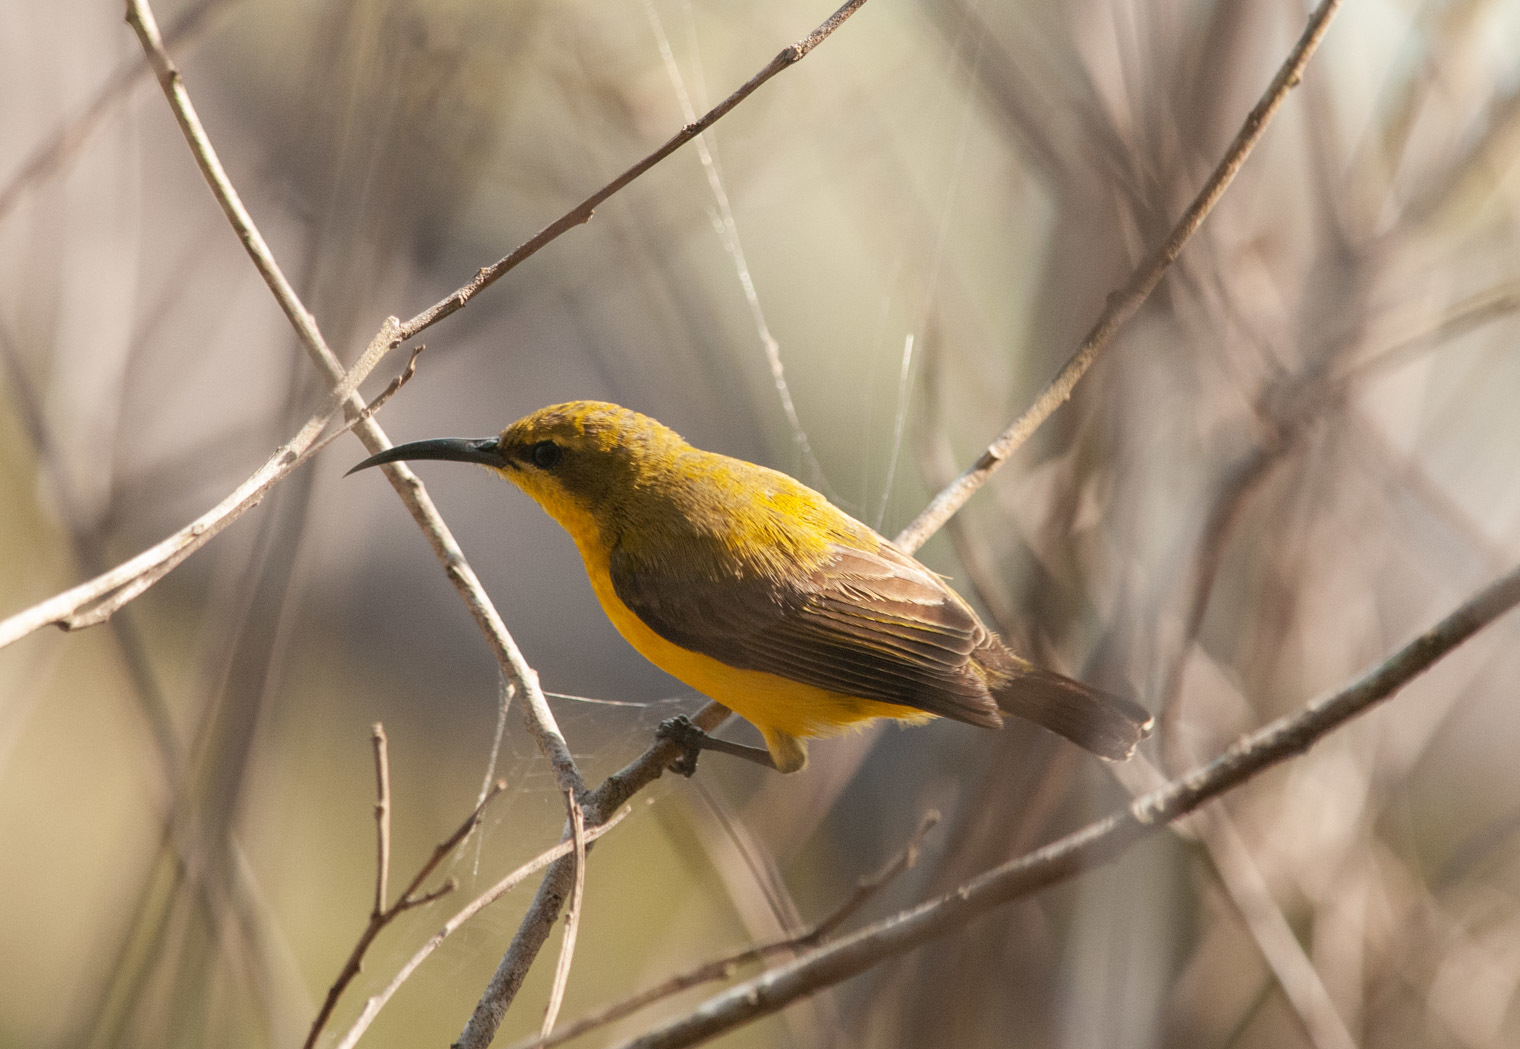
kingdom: Animalia
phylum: Chordata
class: Aves
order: Passeriformes
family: Nectariniidae
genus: Cinnyris
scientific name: Cinnyris
